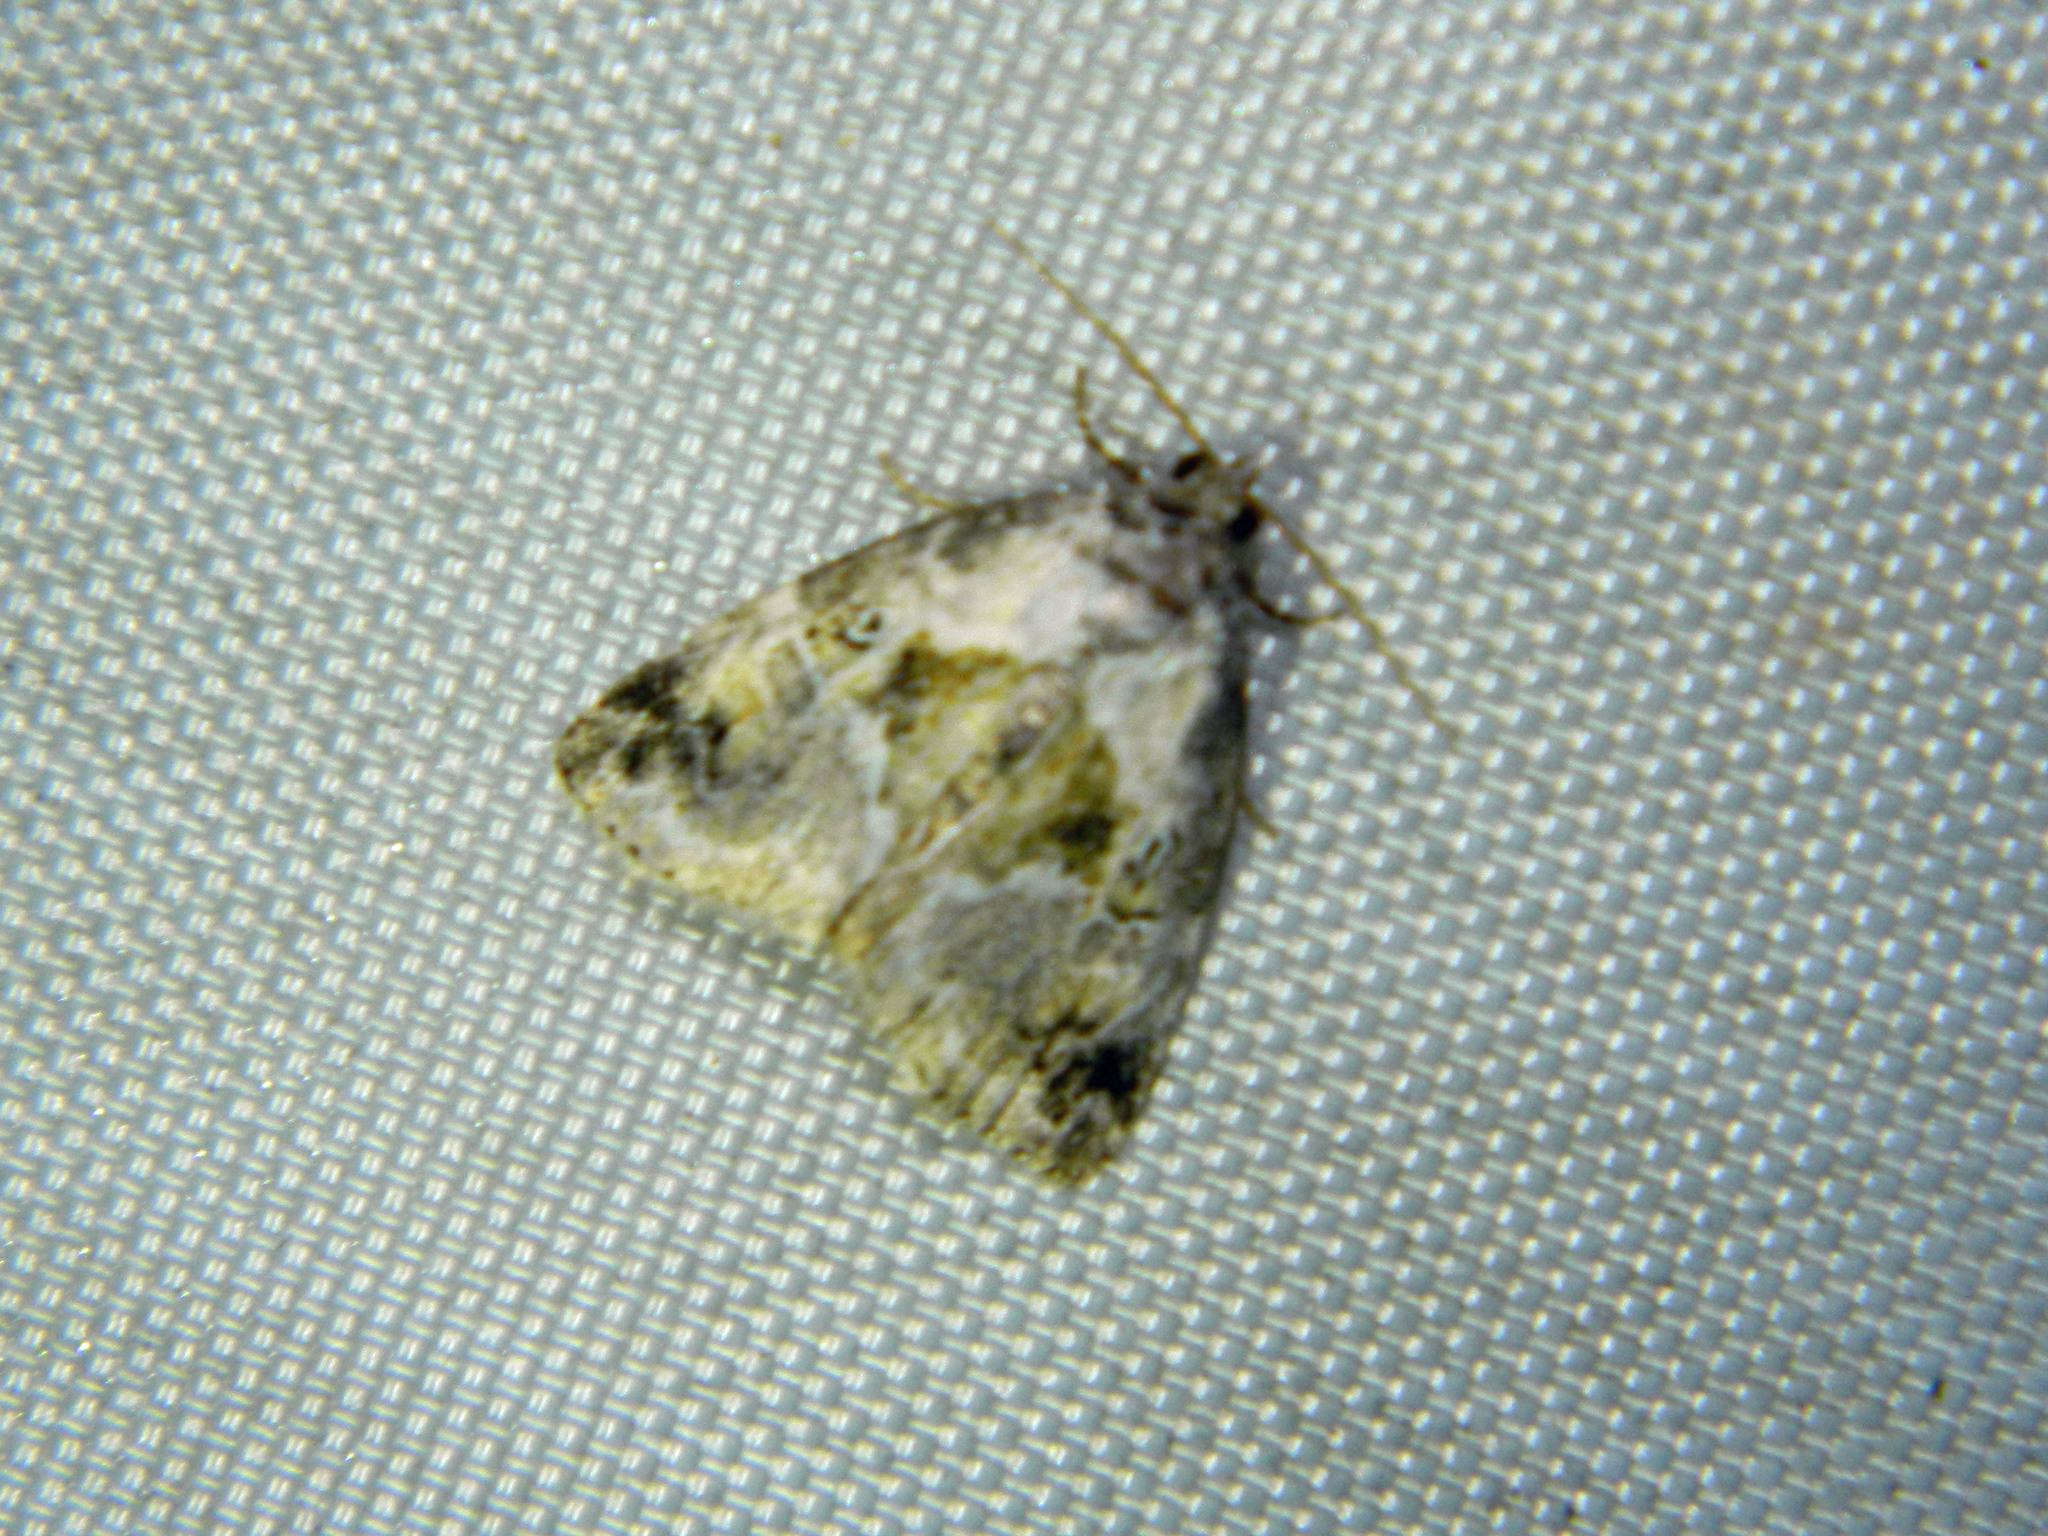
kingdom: Animalia
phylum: Arthropoda
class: Insecta
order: Lepidoptera
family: Noctuidae
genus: Maliattha
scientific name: Maliattha synochitis
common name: Black-dotted glyph
